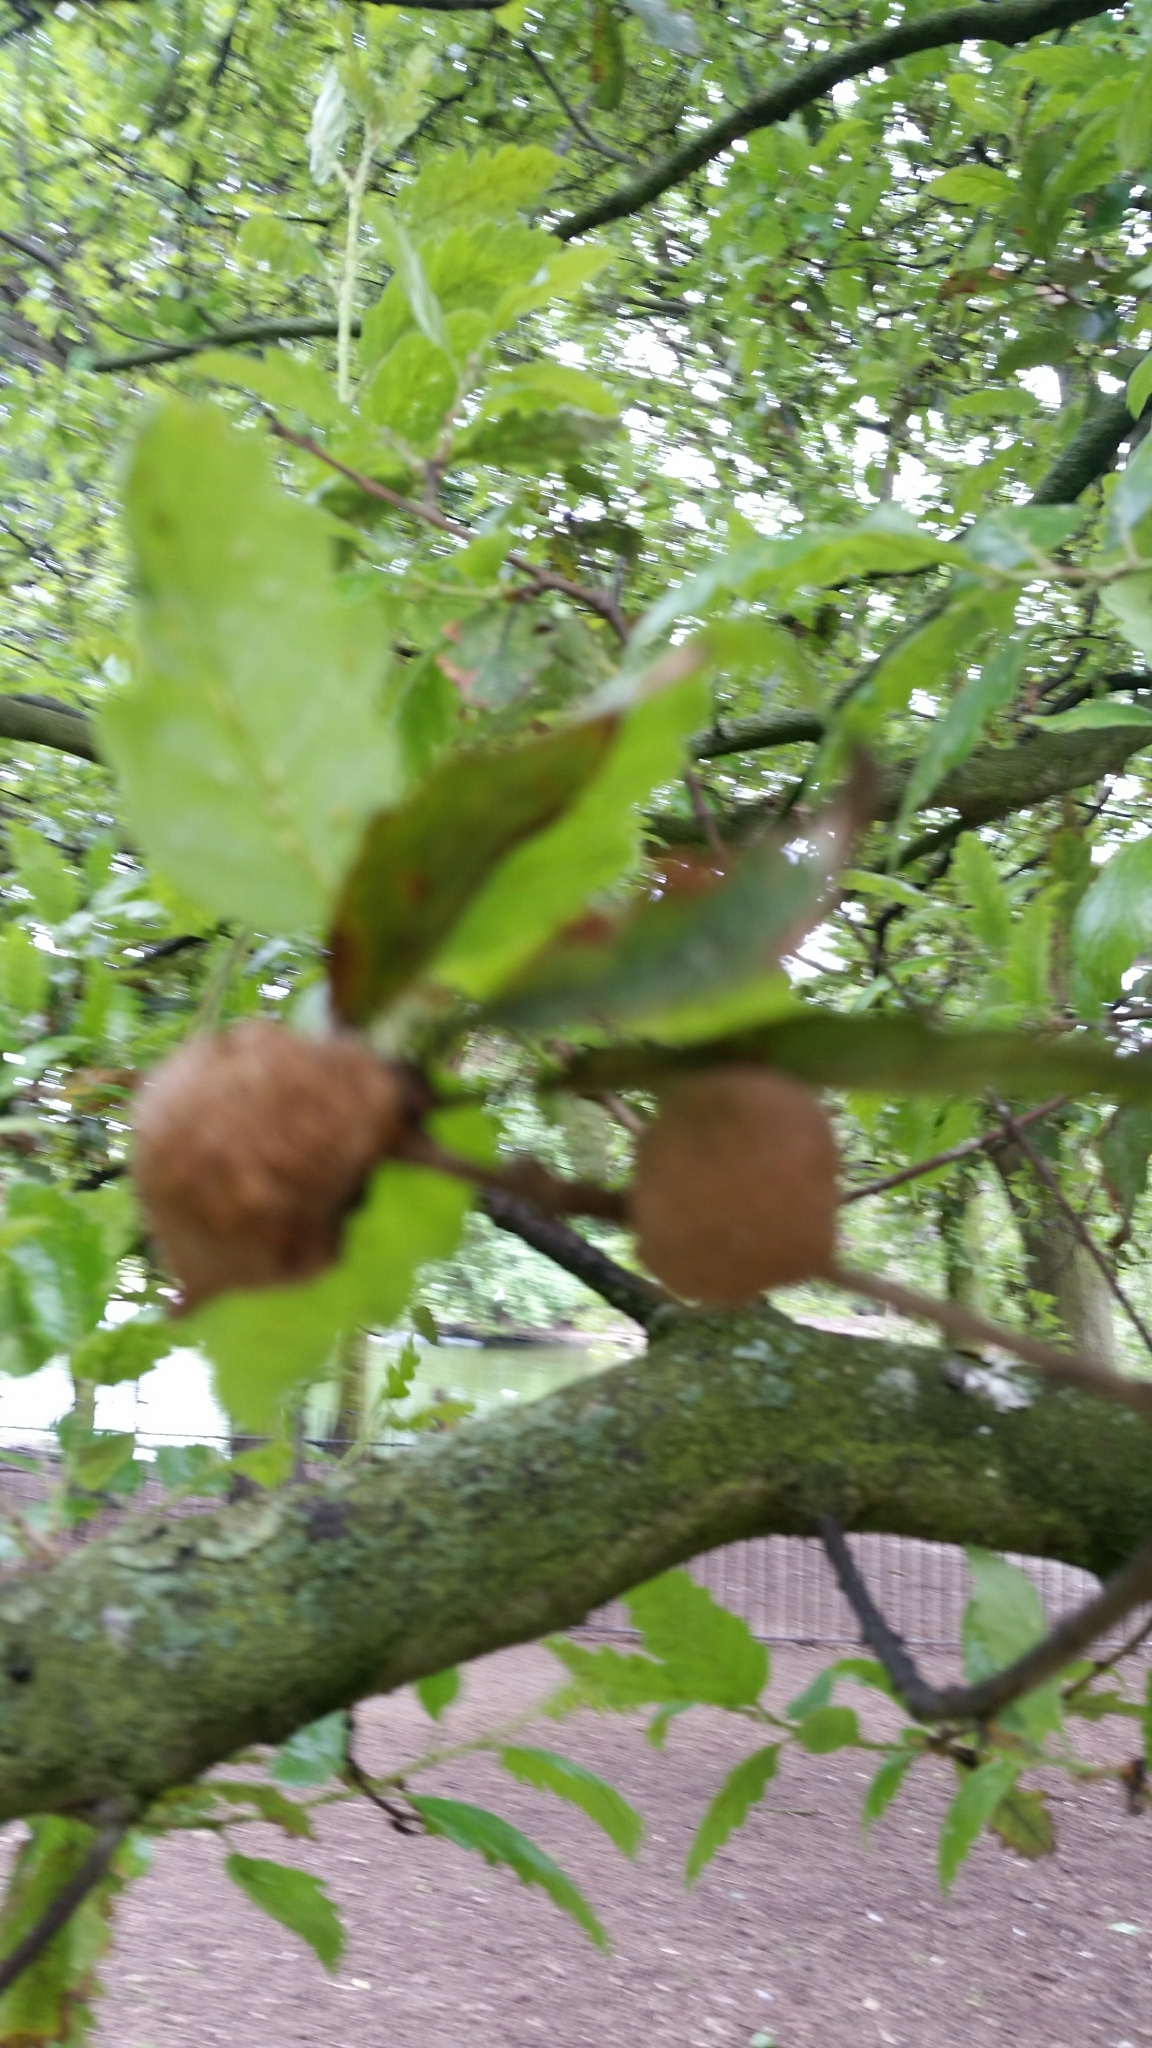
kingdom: Animalia
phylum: Arthropoda
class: Insecta
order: Hymenoptera
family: Cynipidae
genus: Aphelonyx
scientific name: Aphelonyx cerricola
